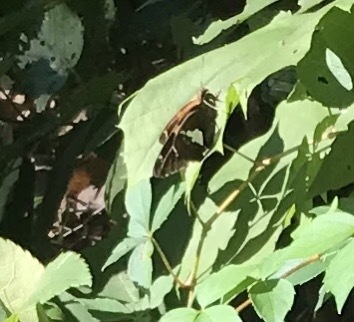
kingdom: Animalia
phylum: Arthropoda
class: Insecta
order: Lepidoptera
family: Hesperiidae
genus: Epargyreus
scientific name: Epargyreus clarus
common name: Silver-spotted skipper
